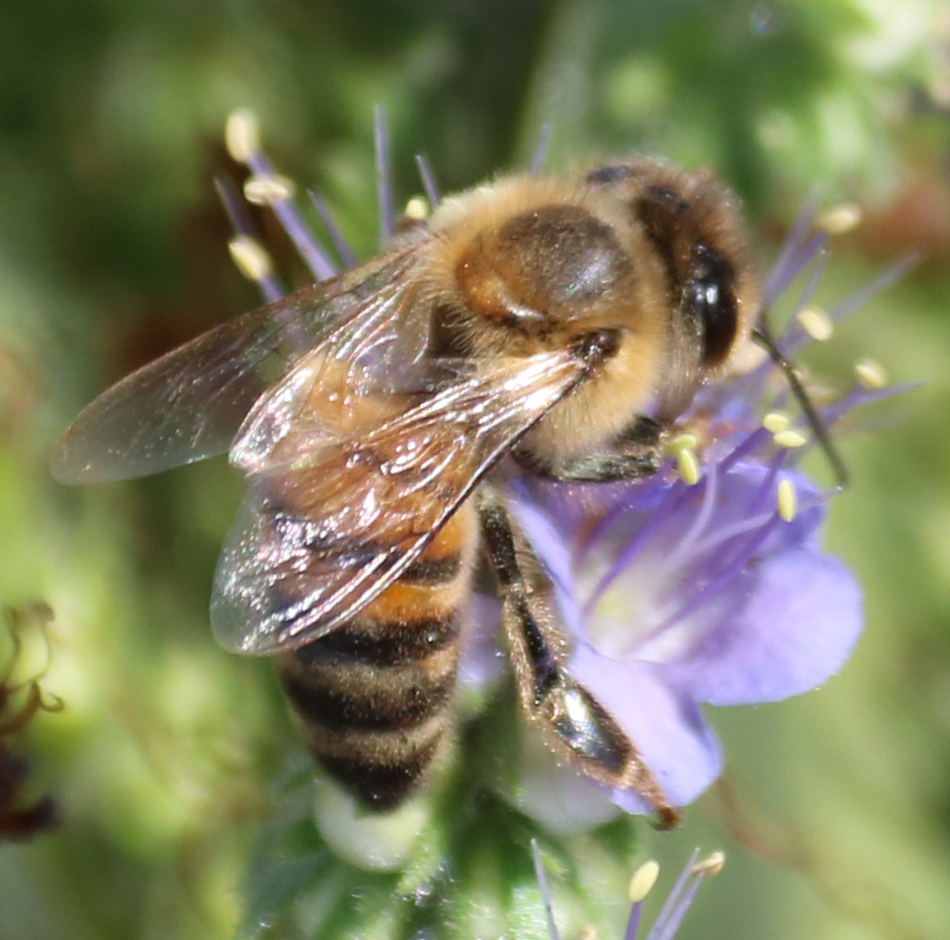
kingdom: Animalia
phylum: Arthropoda
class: Insecta
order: Hymenoptera
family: Apidae
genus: Apis
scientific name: Apis mellifera
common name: Honey bee
